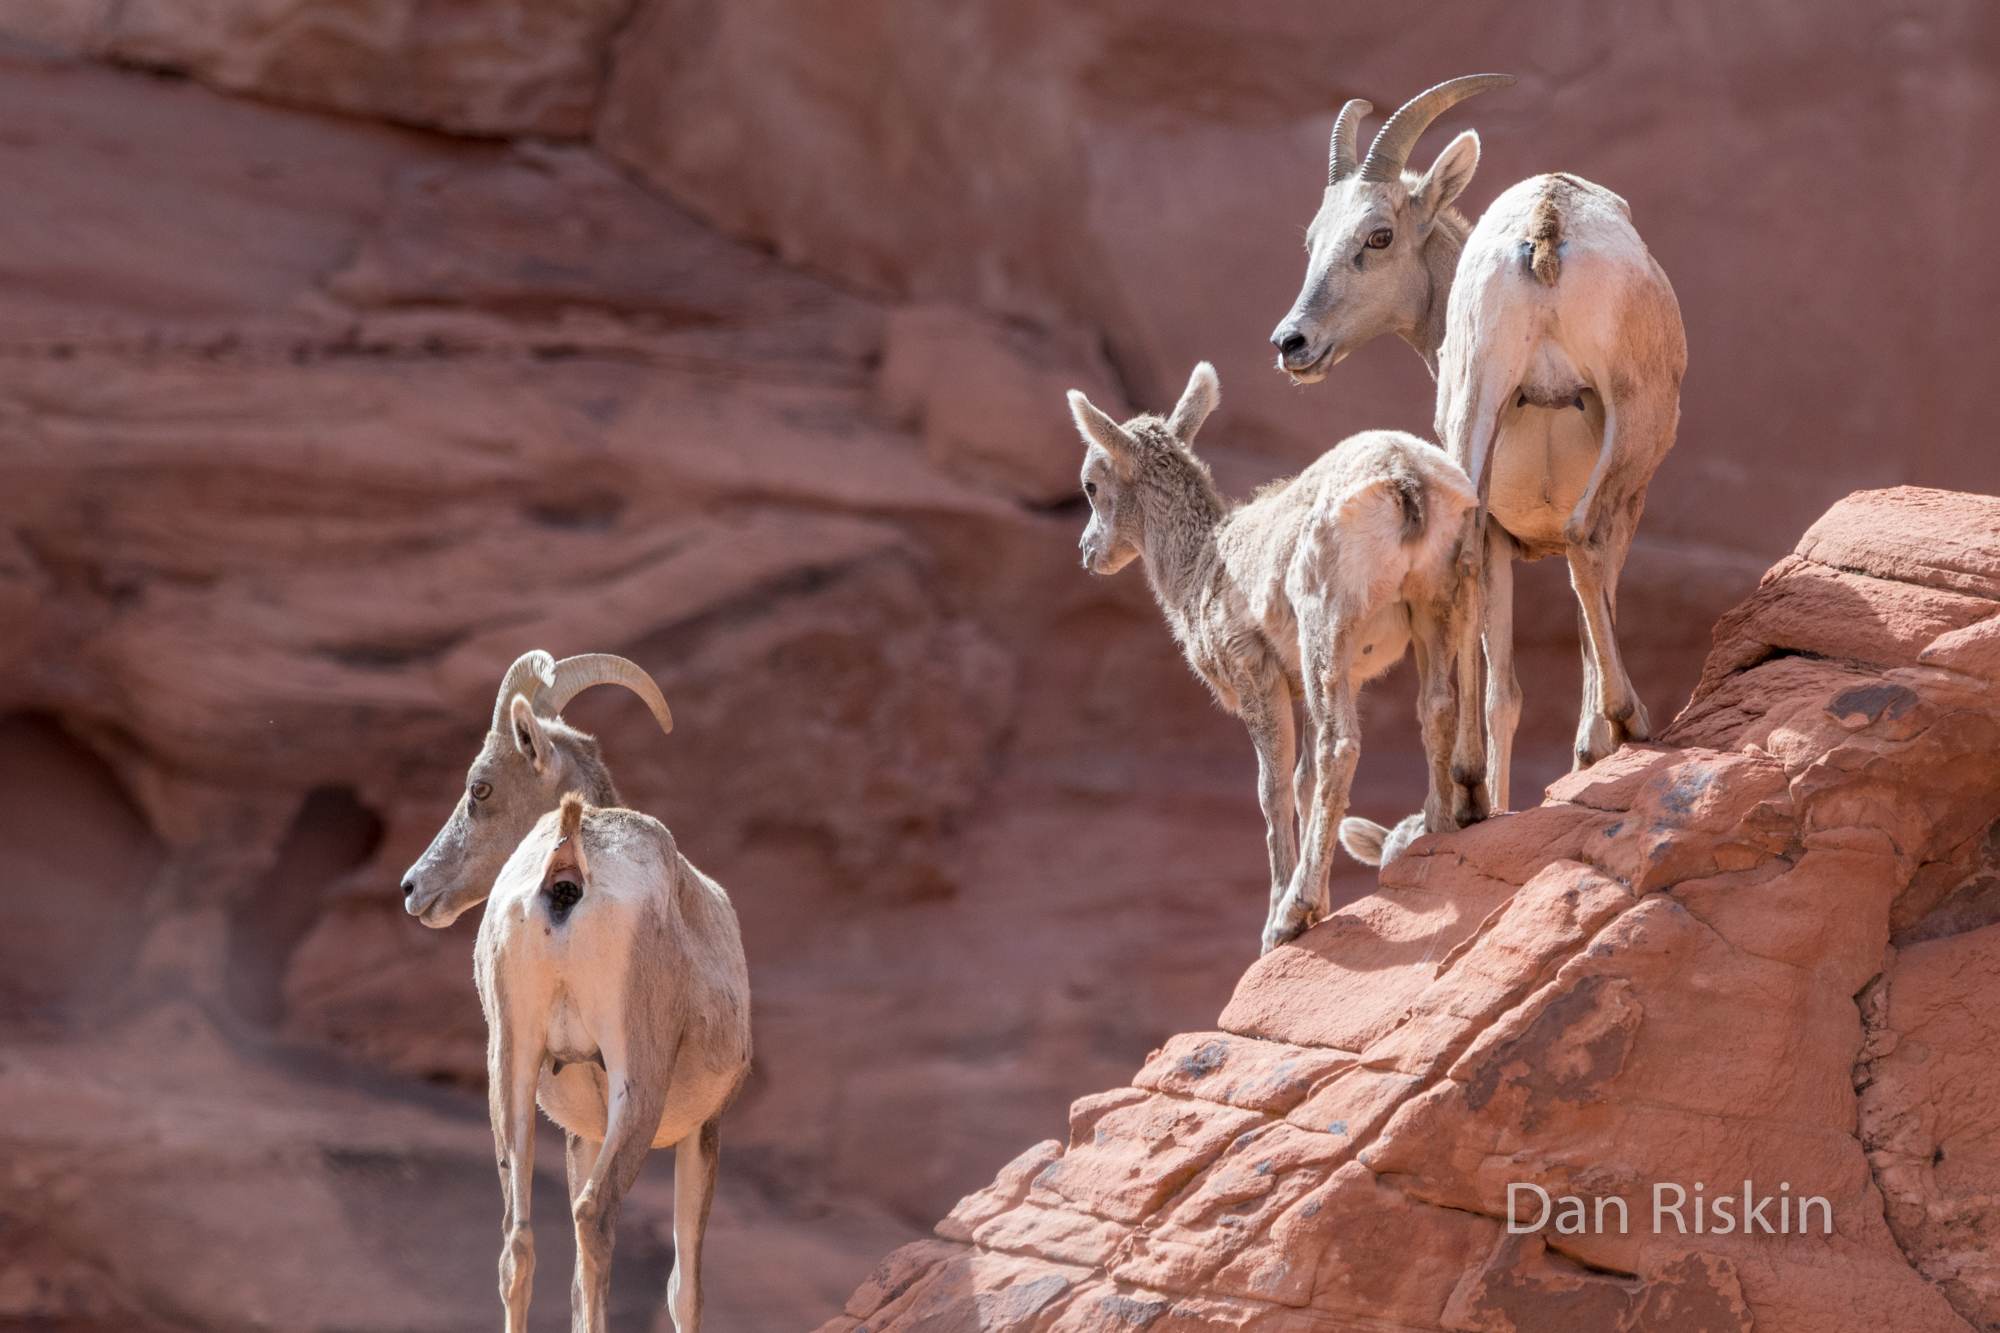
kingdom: Animalia
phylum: Chordata
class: Mammalia
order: Artiodactyla
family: Bovidae
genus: Ovis
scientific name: Ovis canadensis
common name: Bighorn sheep
